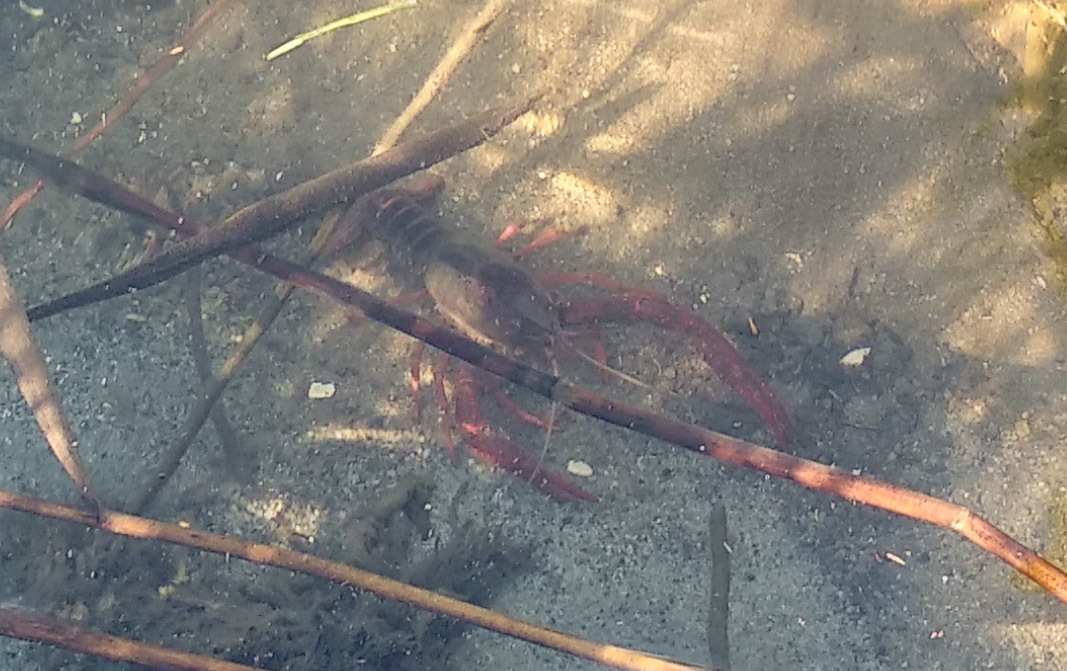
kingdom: Animalia
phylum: Arthropoda
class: Malacostraca
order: Decapoda
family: Cambaridae
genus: Procambarus
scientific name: Procambarus clarkii
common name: Red swamp crayfish
